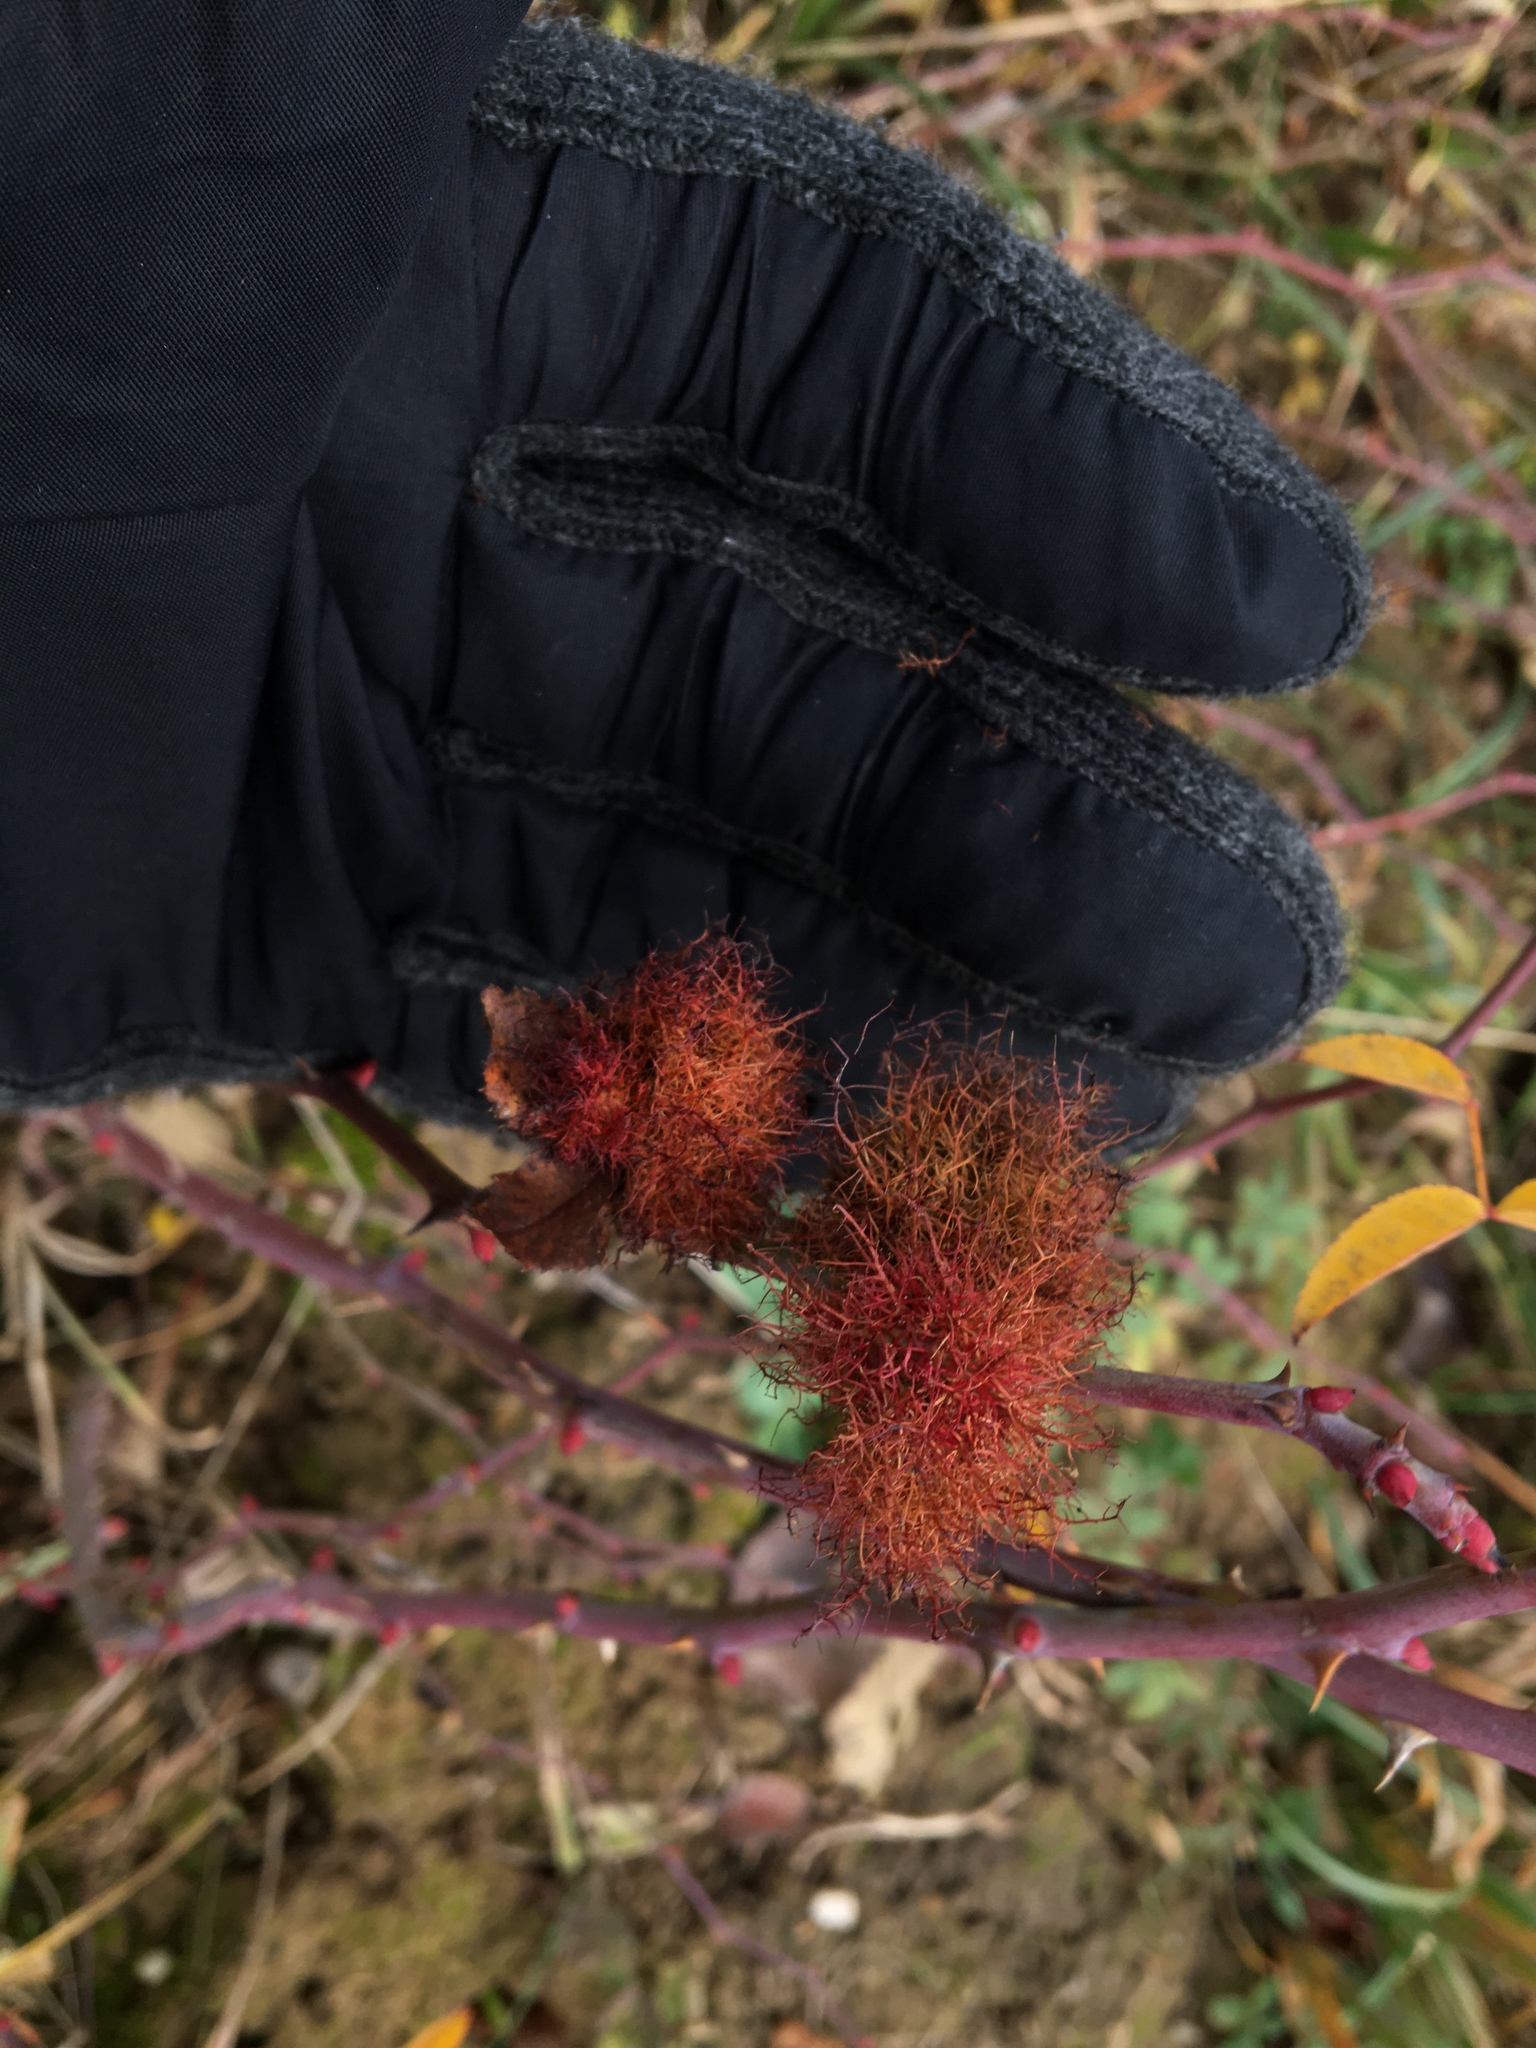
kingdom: Animalia
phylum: Arthropoda
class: Insecta
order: Hymenoptera
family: Cynipidae
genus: Diplolepis
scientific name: Diplolepis rosae
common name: Bedeguar gall
